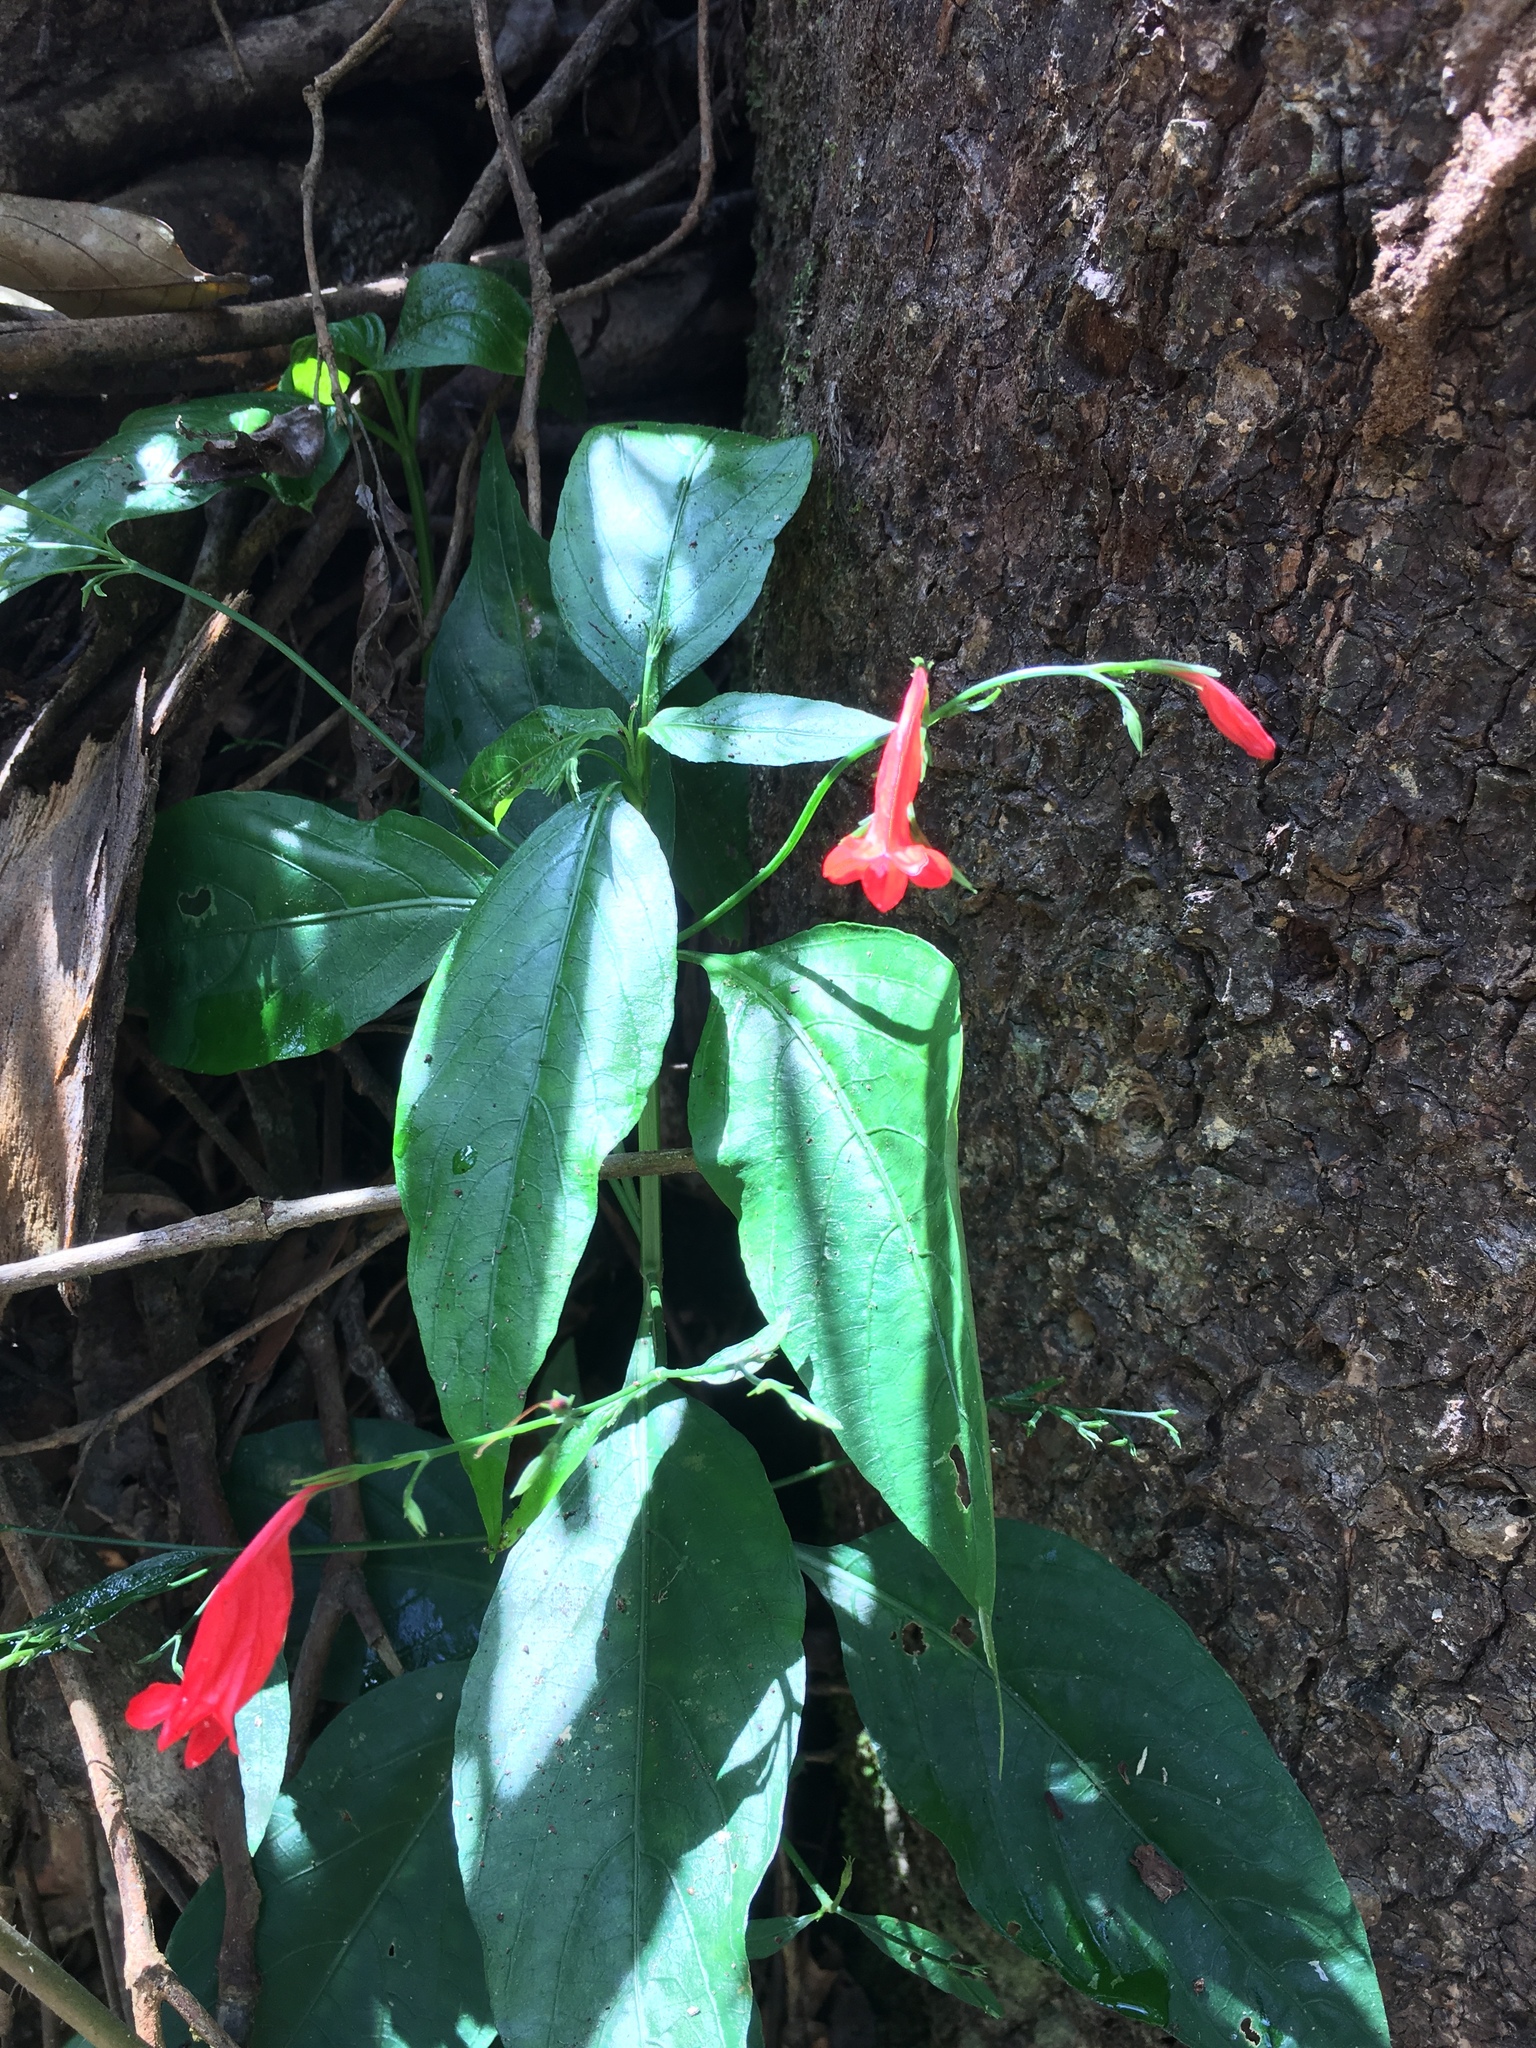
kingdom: Plantae
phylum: Tracheophyta
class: Magnoliopsida
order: Lamiales
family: Acanthaceae
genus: Ruellia
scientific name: Ruellia brevifolia
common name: Tropical wild petunia
